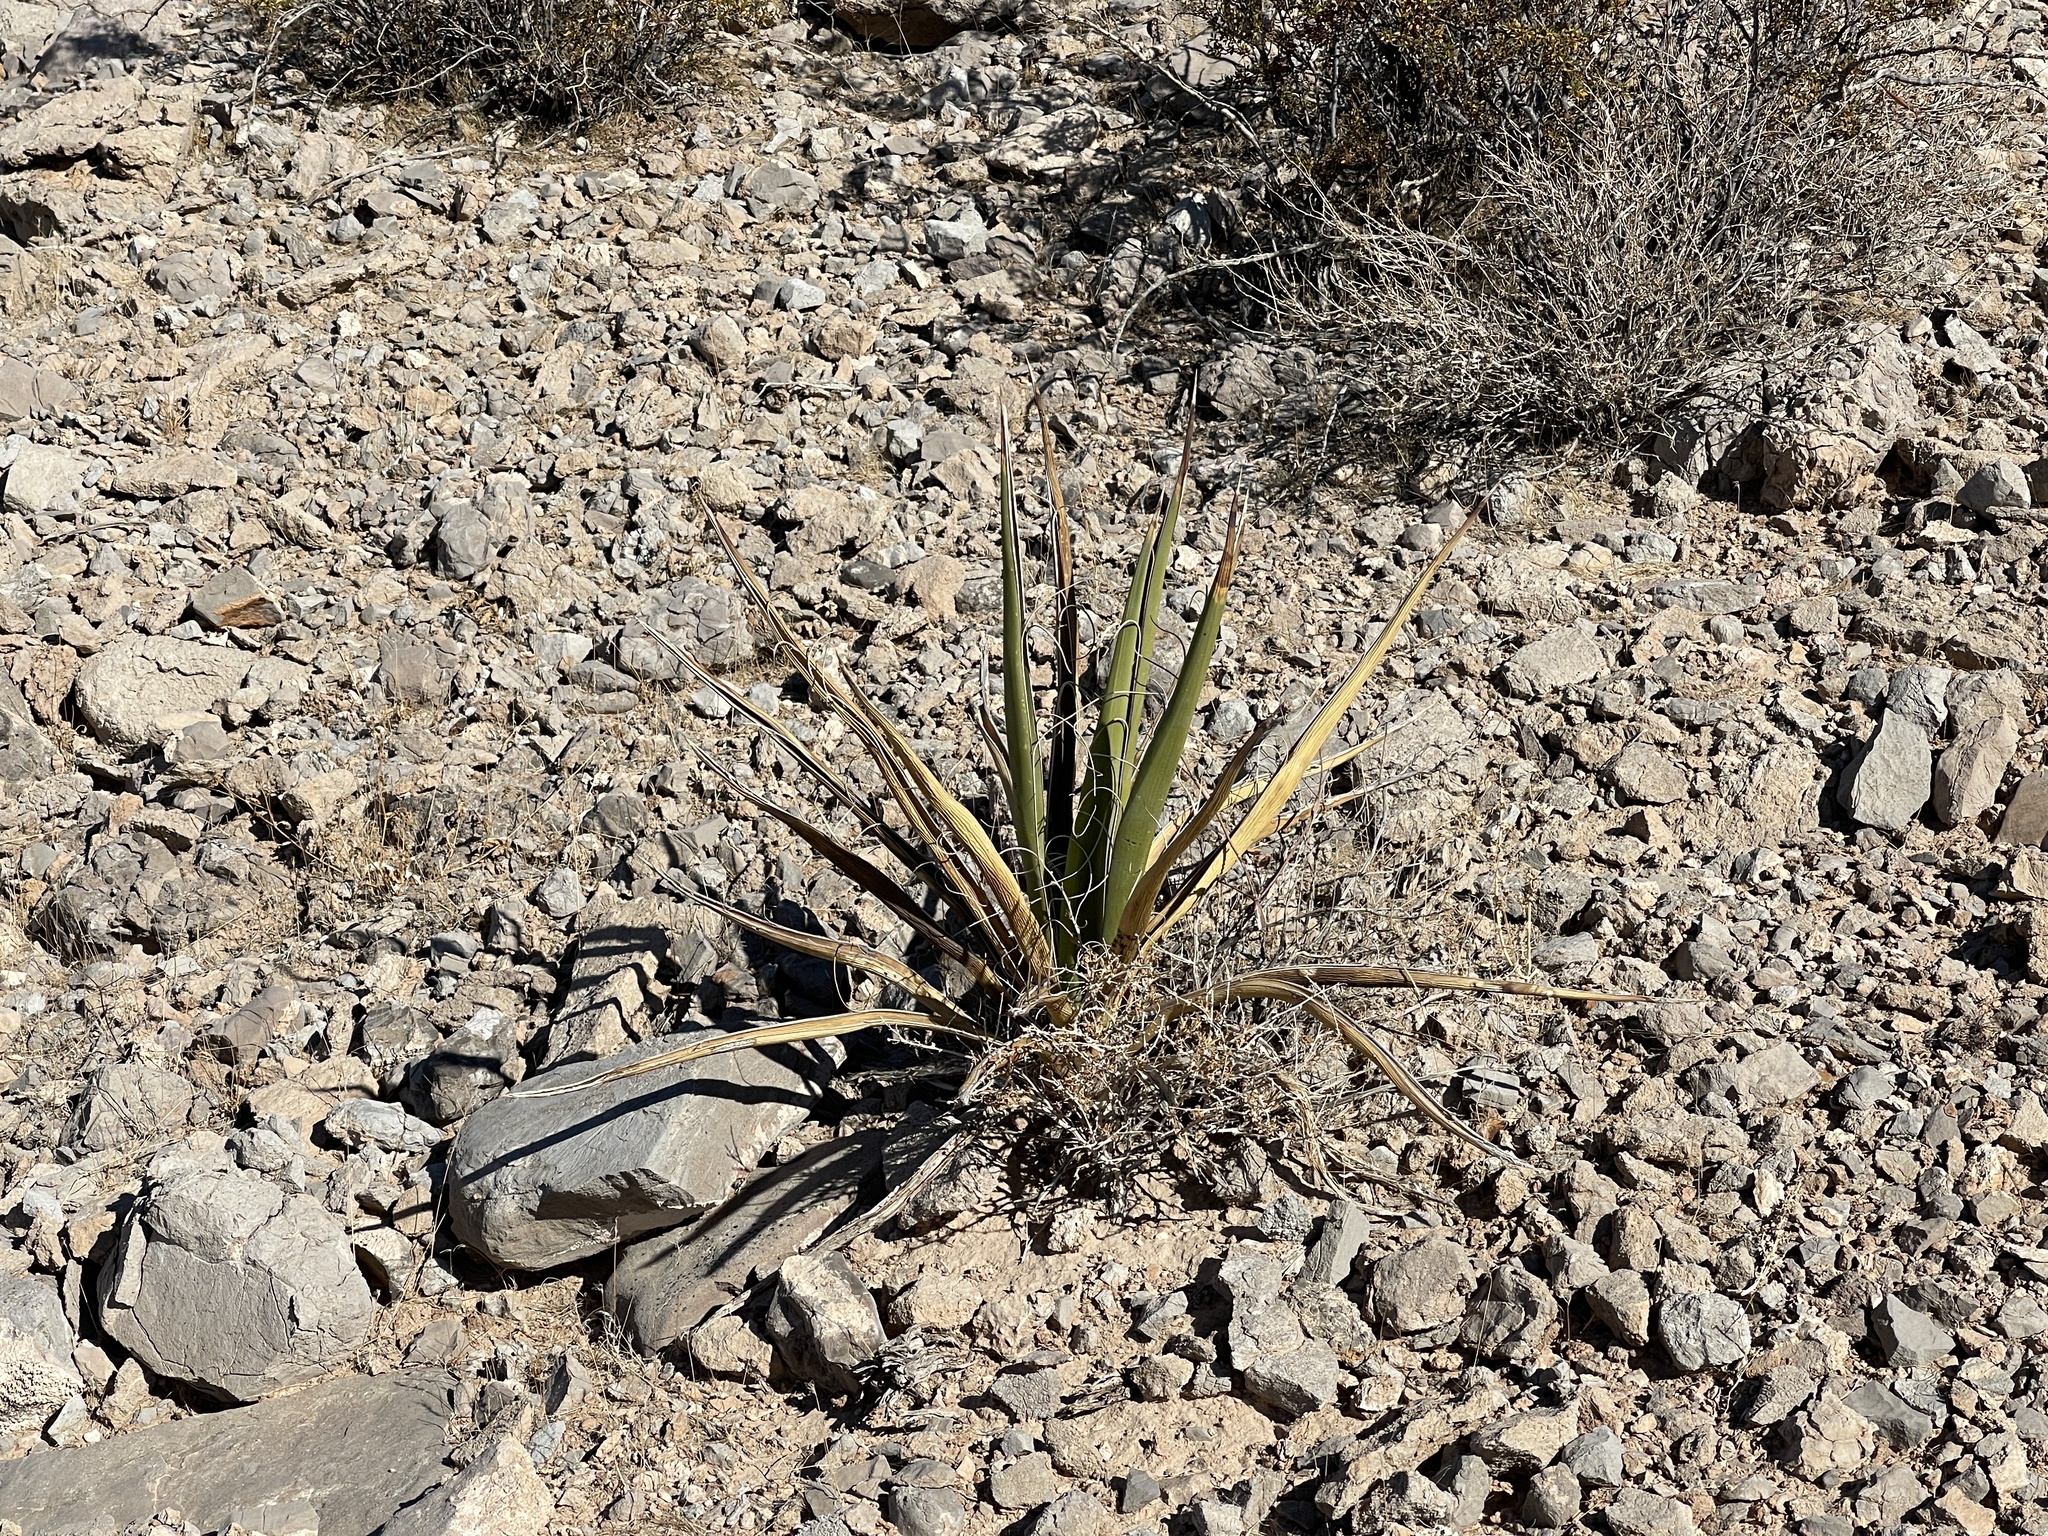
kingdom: Plantae
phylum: Tracheophyta
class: Liliopsida
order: Asparagales
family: Asparagaceae
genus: Yucca
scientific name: Yucca schidigera
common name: Mojave yucca
